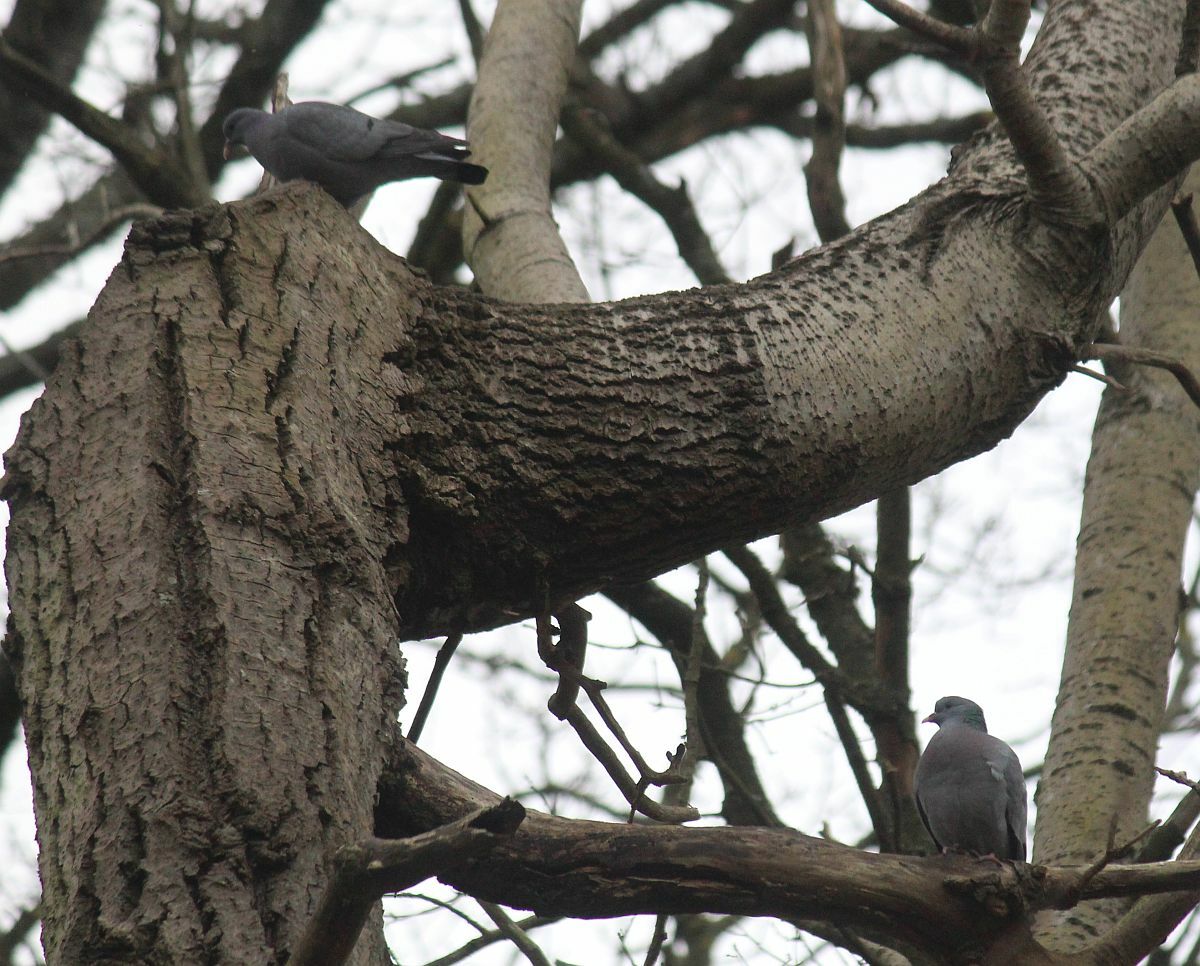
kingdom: Animalia
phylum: Chordata
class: Aves
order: Columbiformes
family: Columbidae
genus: Columba
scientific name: Columba oenas
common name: Stock dove
